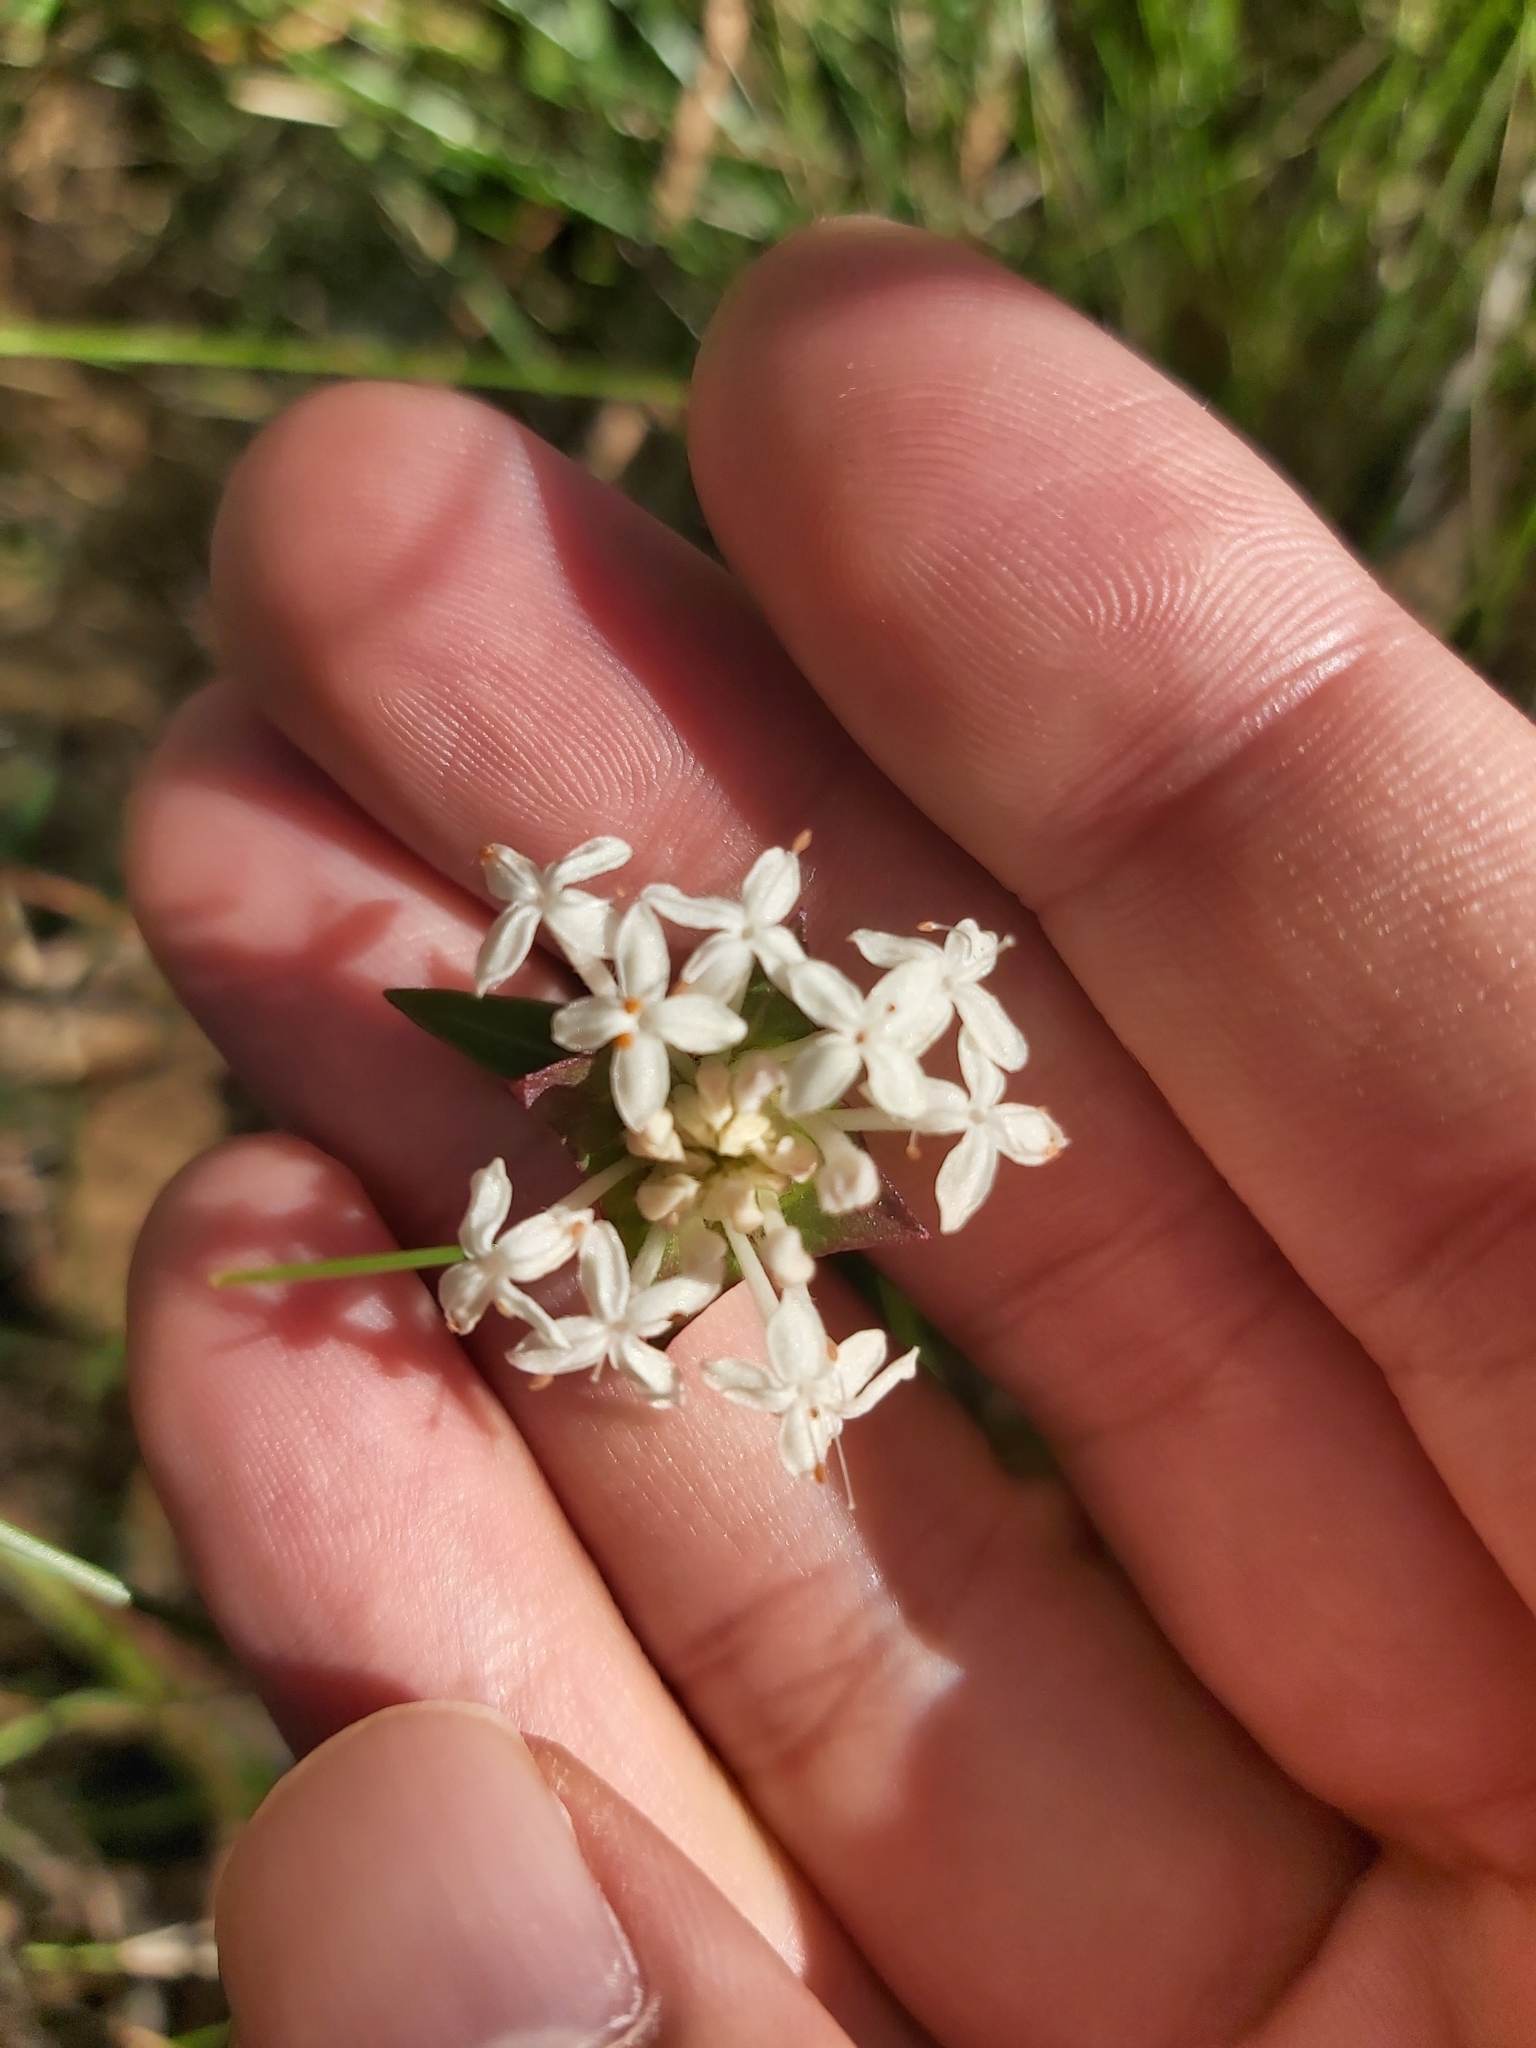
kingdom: Plantae
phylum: Tracheophyta
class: Magnoliopsida
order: Malvales
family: Thymelaeaceae
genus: Pimelea
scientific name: Pimelea linifolia
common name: Queen-of-the-bush
